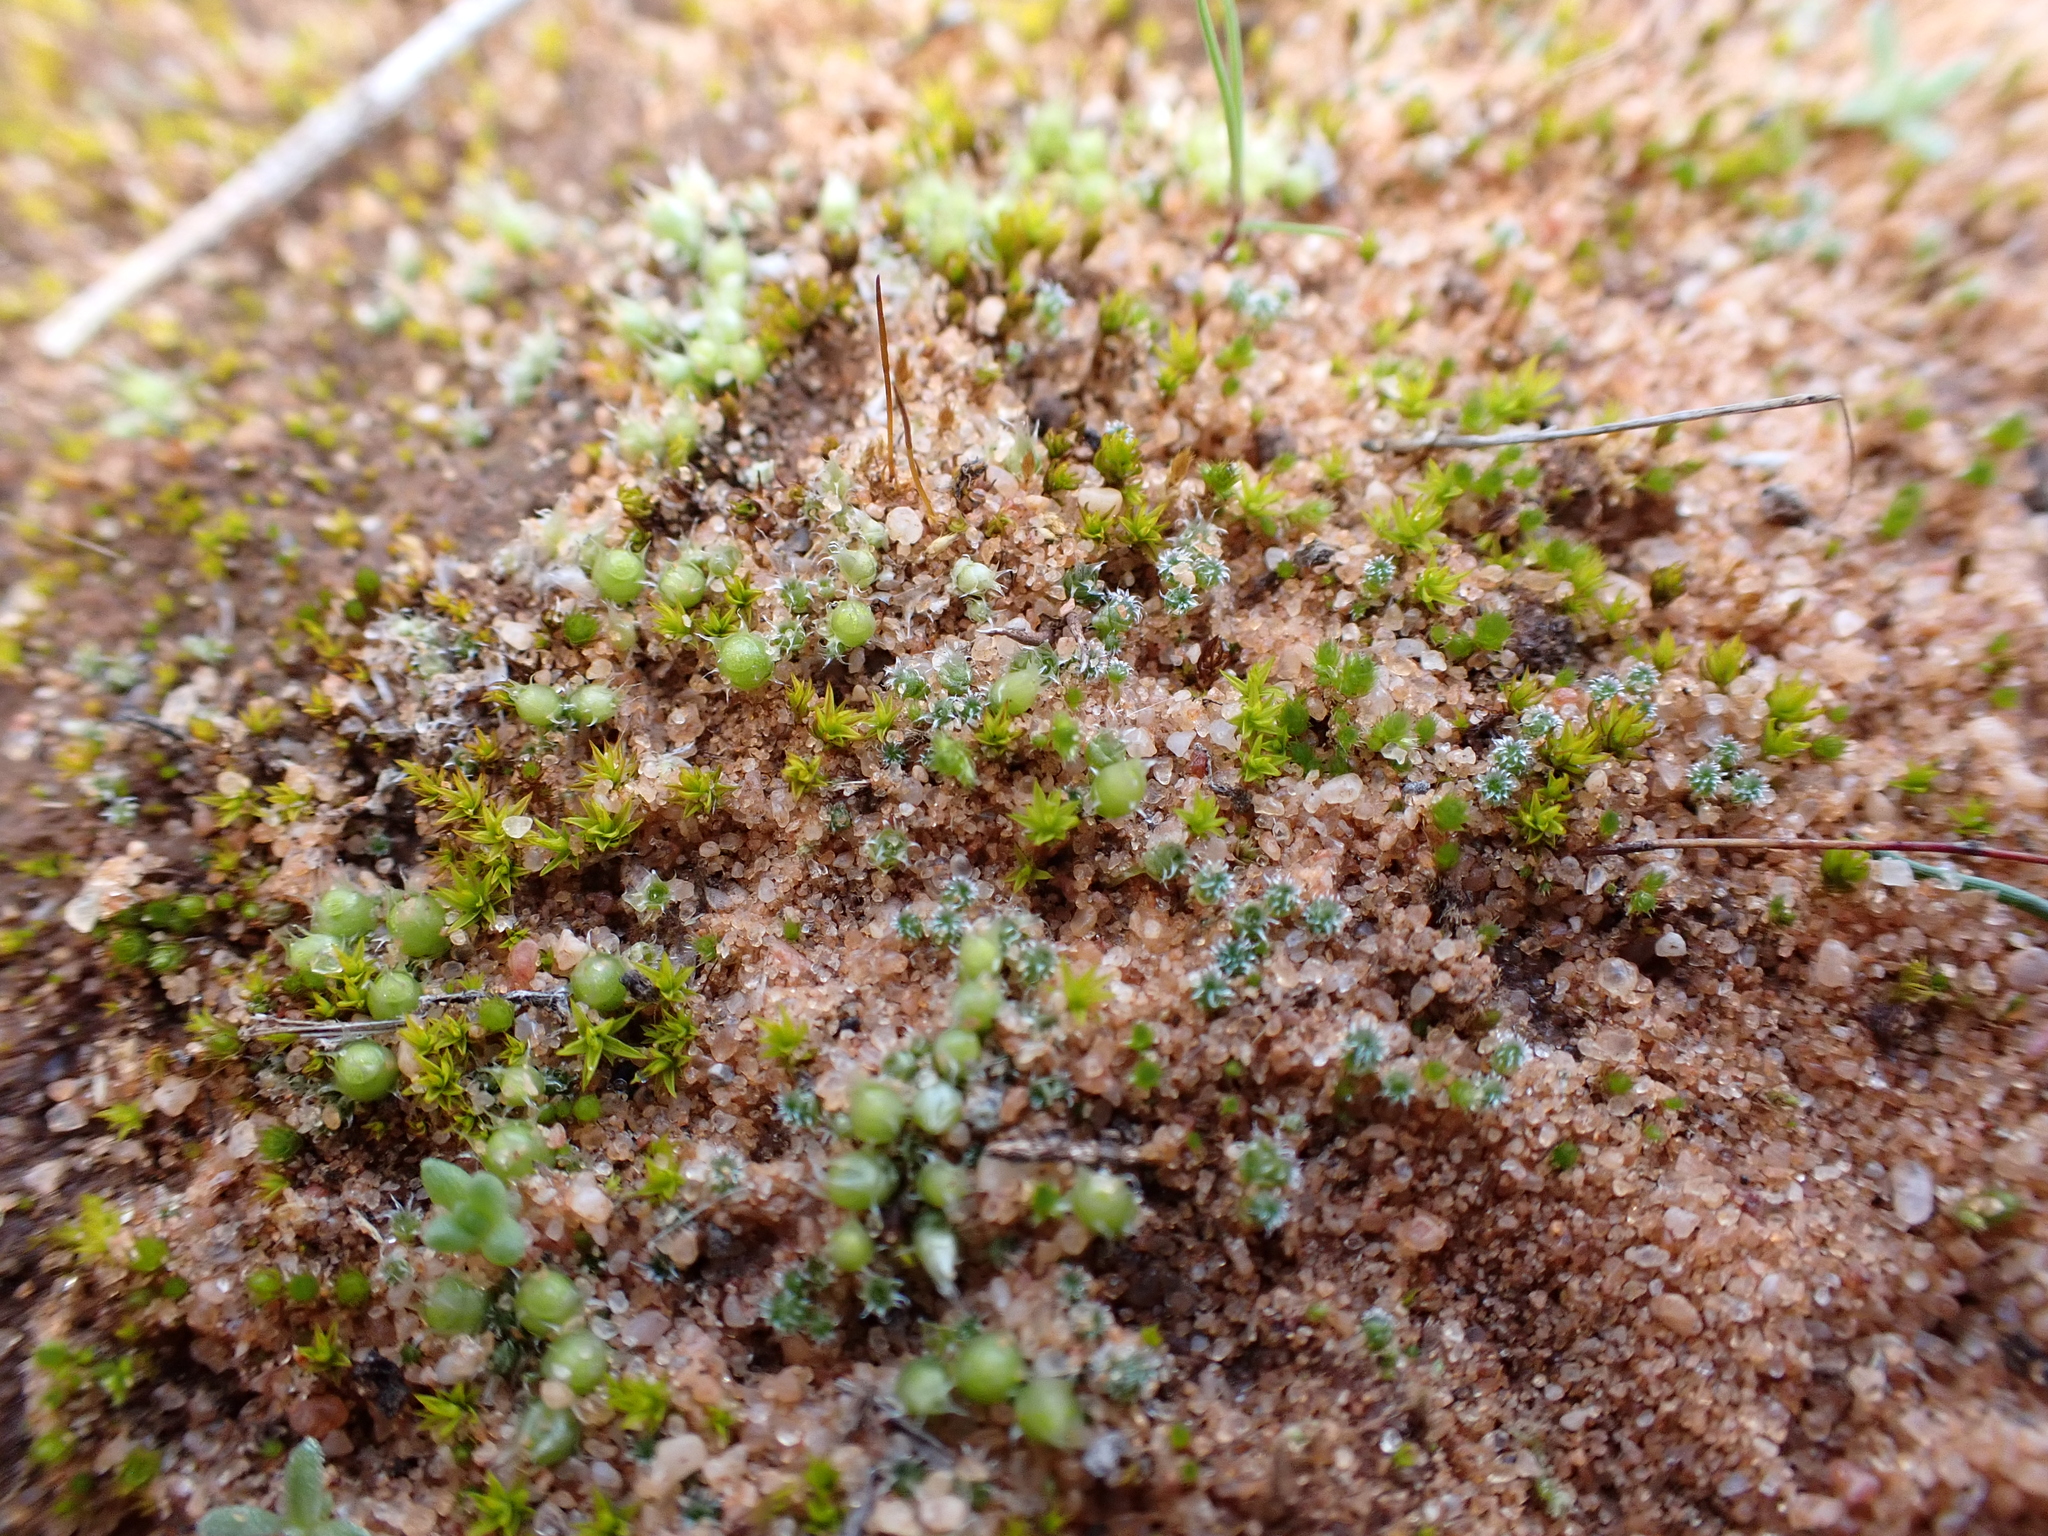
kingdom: Plantae
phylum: Bryophyta
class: Bryopsida
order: Gigaspermales
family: Gigaspermaceae
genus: Gigaspermum
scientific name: Gigaspermum repens
